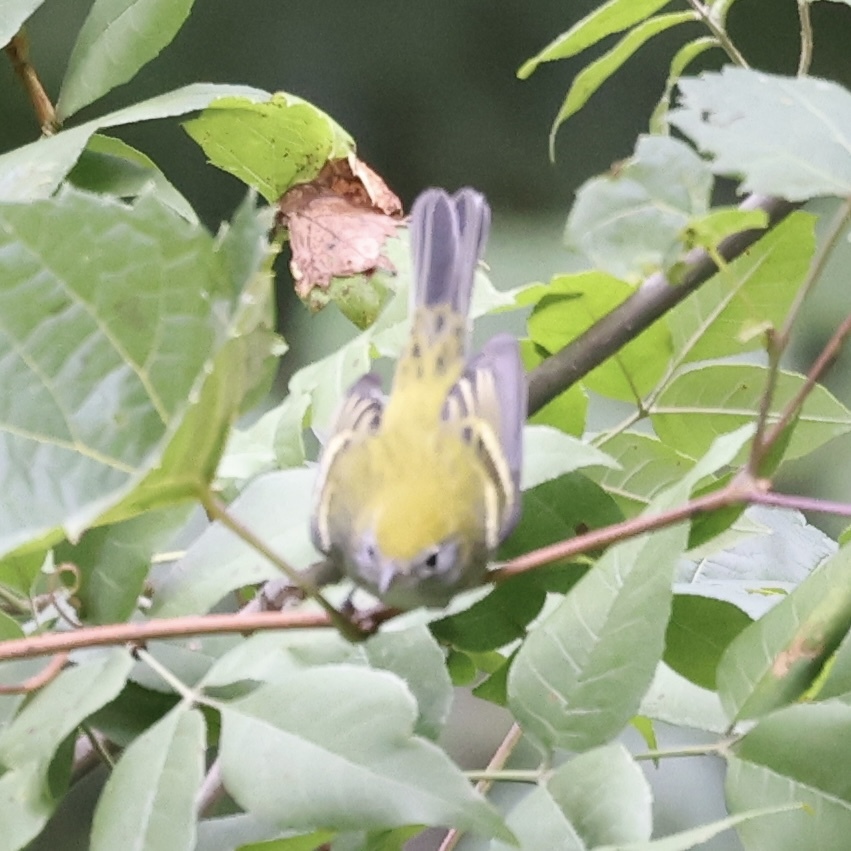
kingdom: Animalia
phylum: Chordata
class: Aves
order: Passeriformes
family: Parulidae
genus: Setophaga
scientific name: Setophaga pensylvanica
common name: Chestnut-sided warbler
